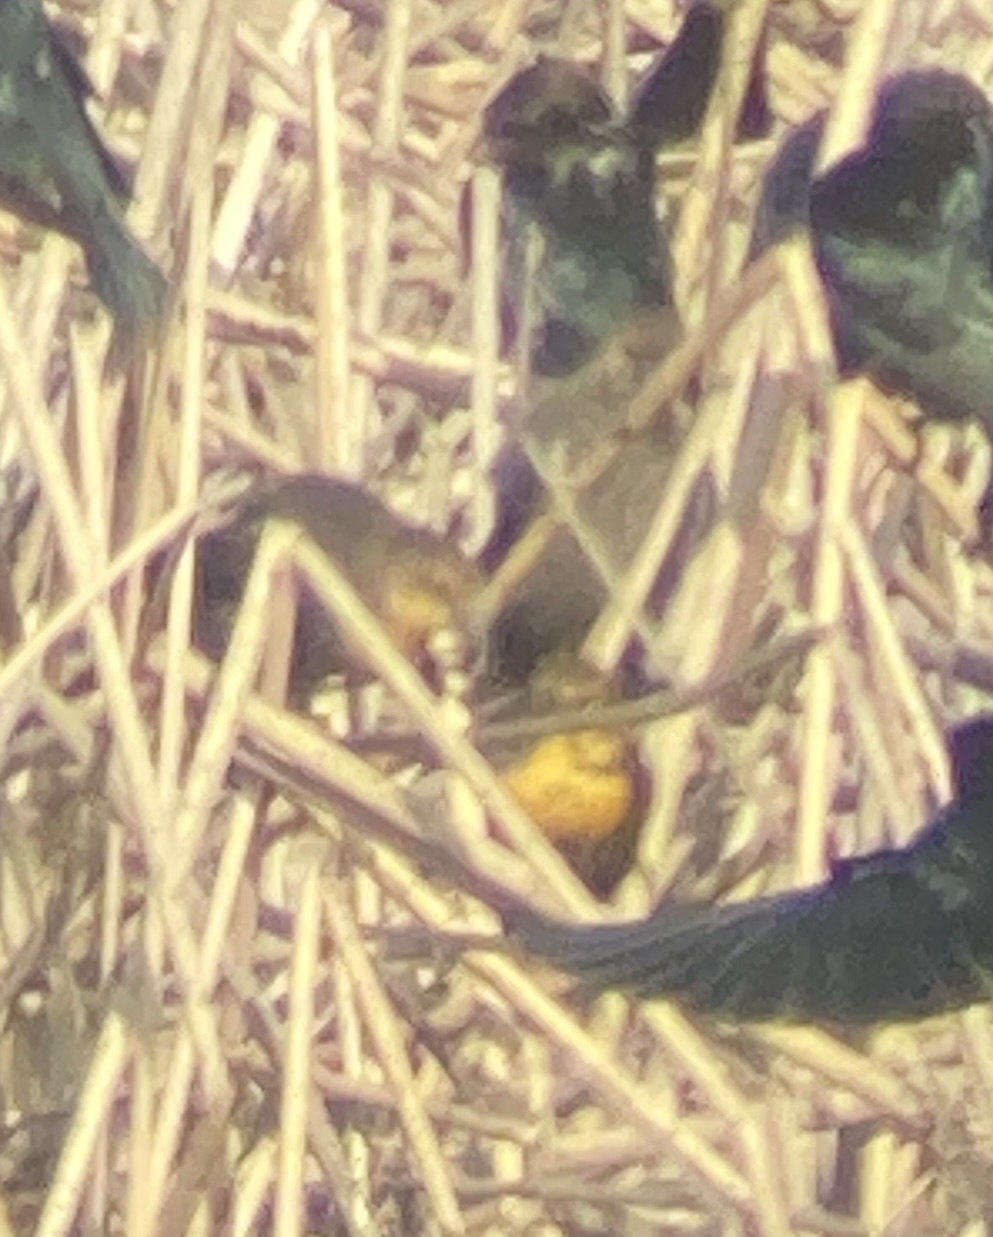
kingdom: Animalia
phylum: Chordata
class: Aves
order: Passeriformes
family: Icteridae
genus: Xanthocephalus
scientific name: Xanthocephalus xanthocephalus
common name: Yellow-headed blackbird
